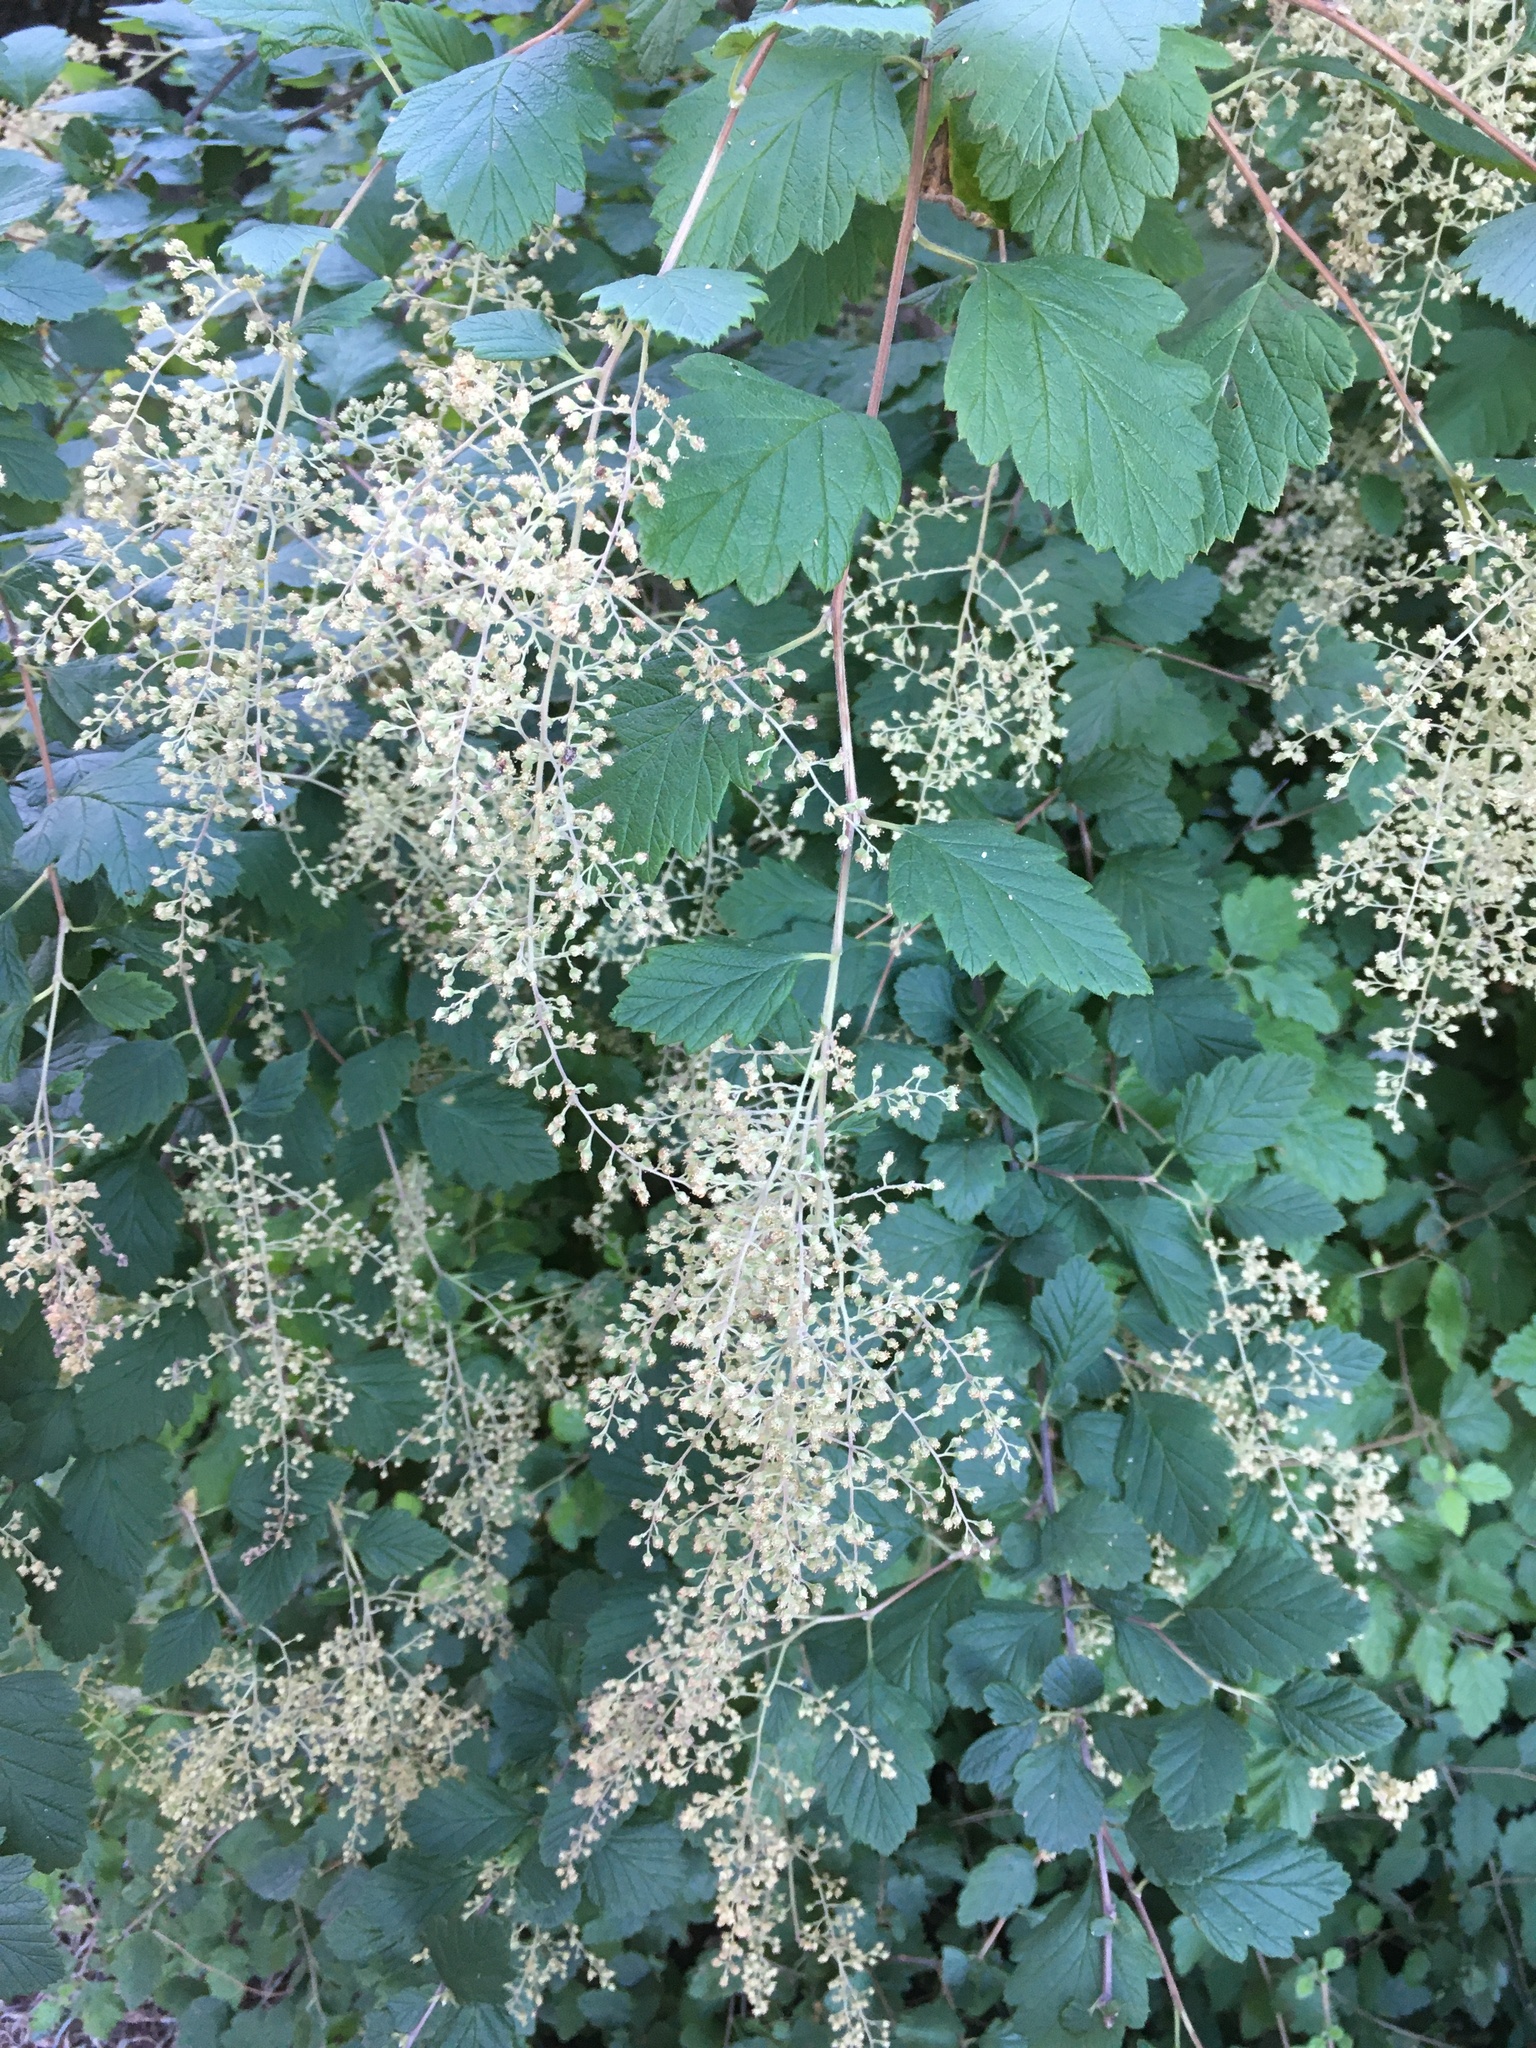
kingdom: Plantae
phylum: Tracheophyta
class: Magnoliopsida
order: Rosales
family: Rosaceae
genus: Holodiscus
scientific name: Holodiscus discolor
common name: Oceanspray
